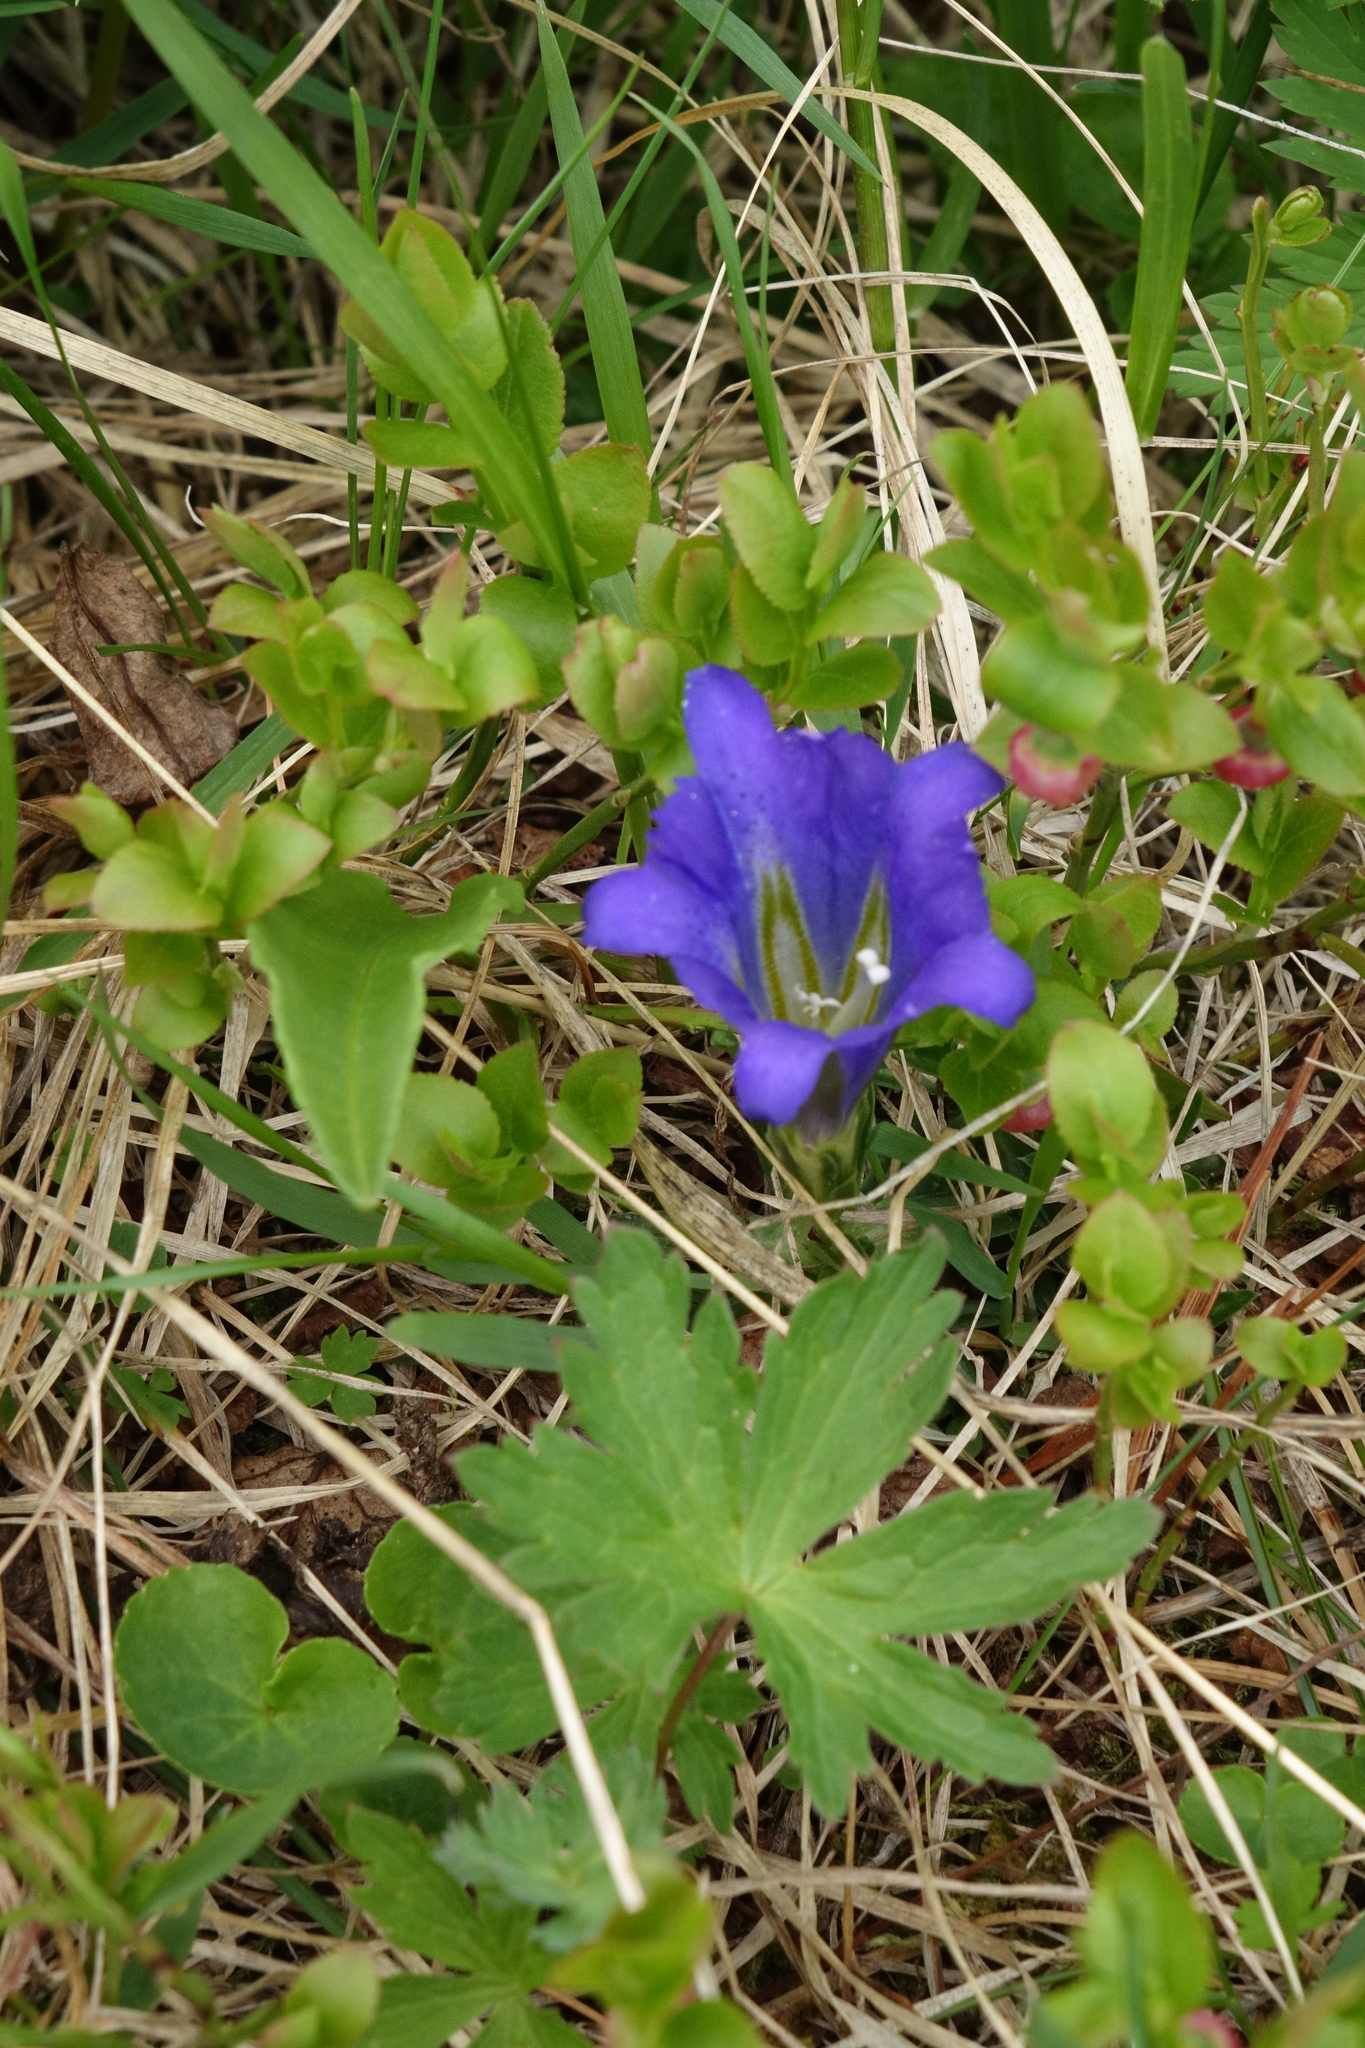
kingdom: Plantae
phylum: Tracheophyta
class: Magnoliopsida
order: Ericales
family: Ericaceae
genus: Vaccinium
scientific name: Vaccinium myrtillus
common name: Bilberry
